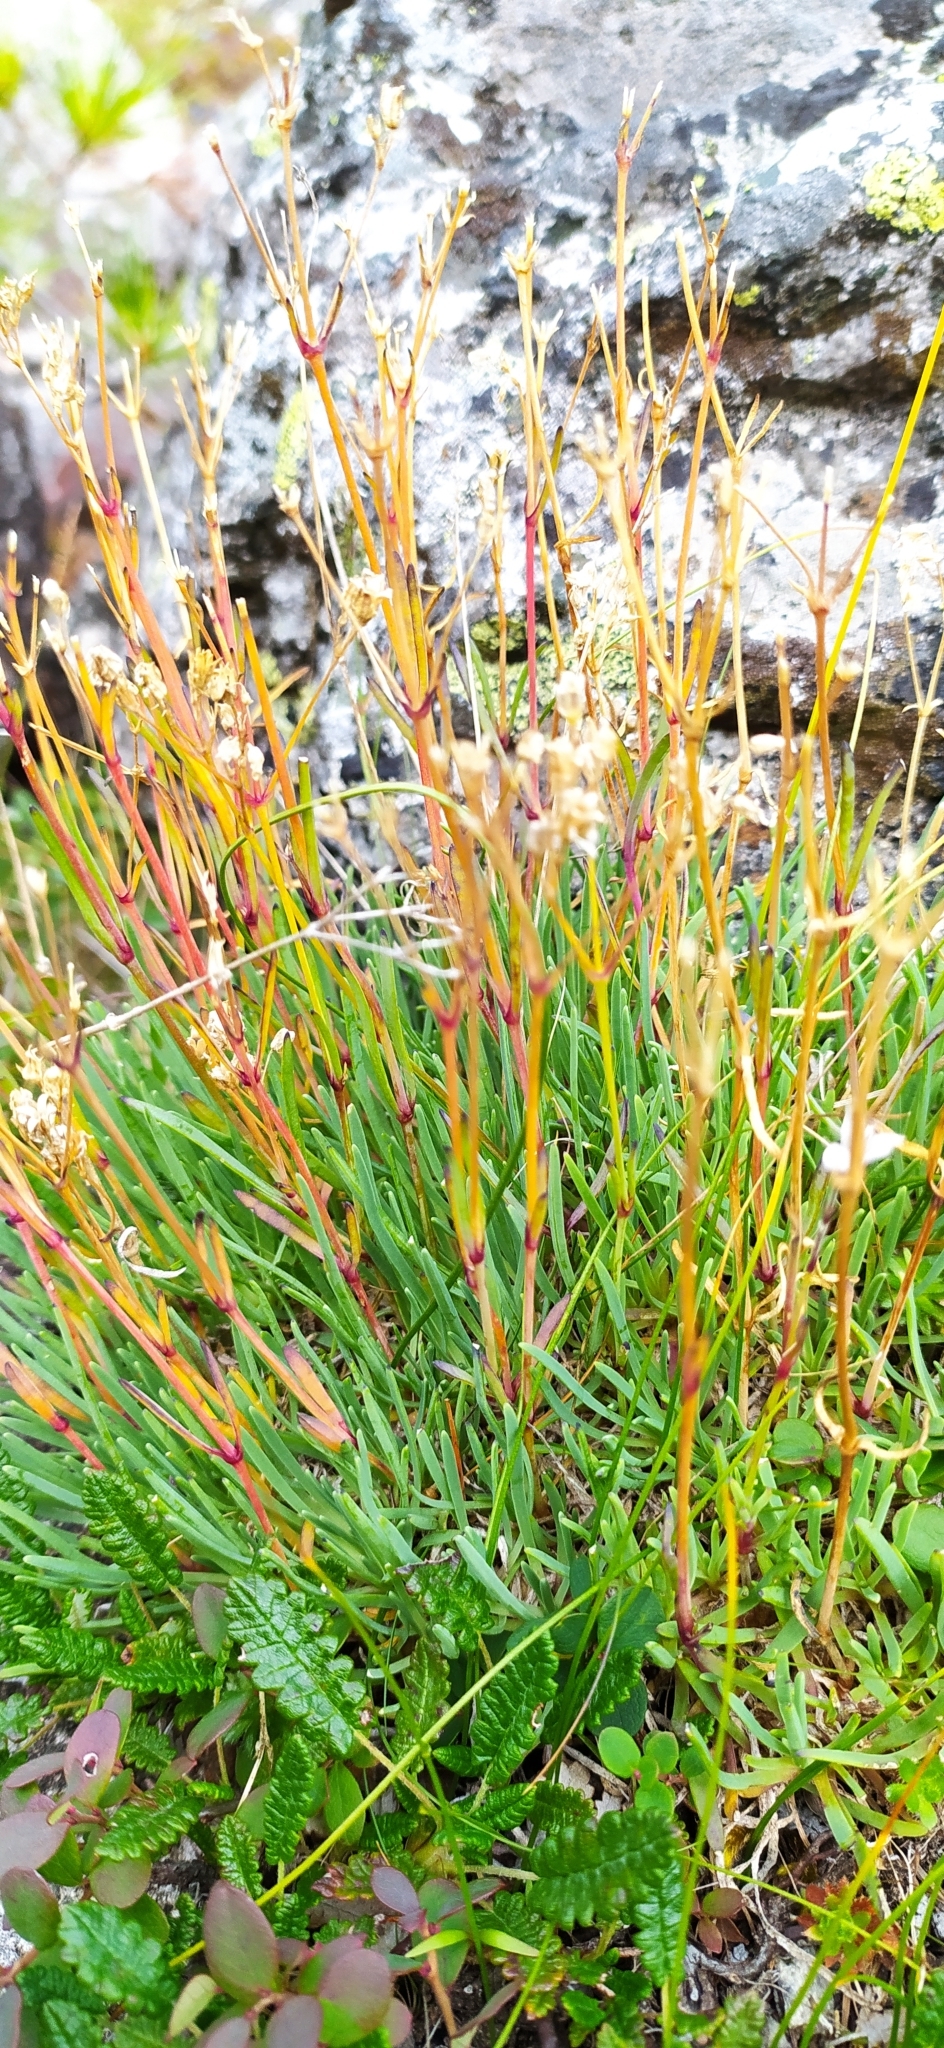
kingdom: Plantae
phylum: Tracheophyta
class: Magnoliopsida
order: Caryophyllales
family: Caryophyllaceae
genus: Gypsophila
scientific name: Gypsophila uralensis
